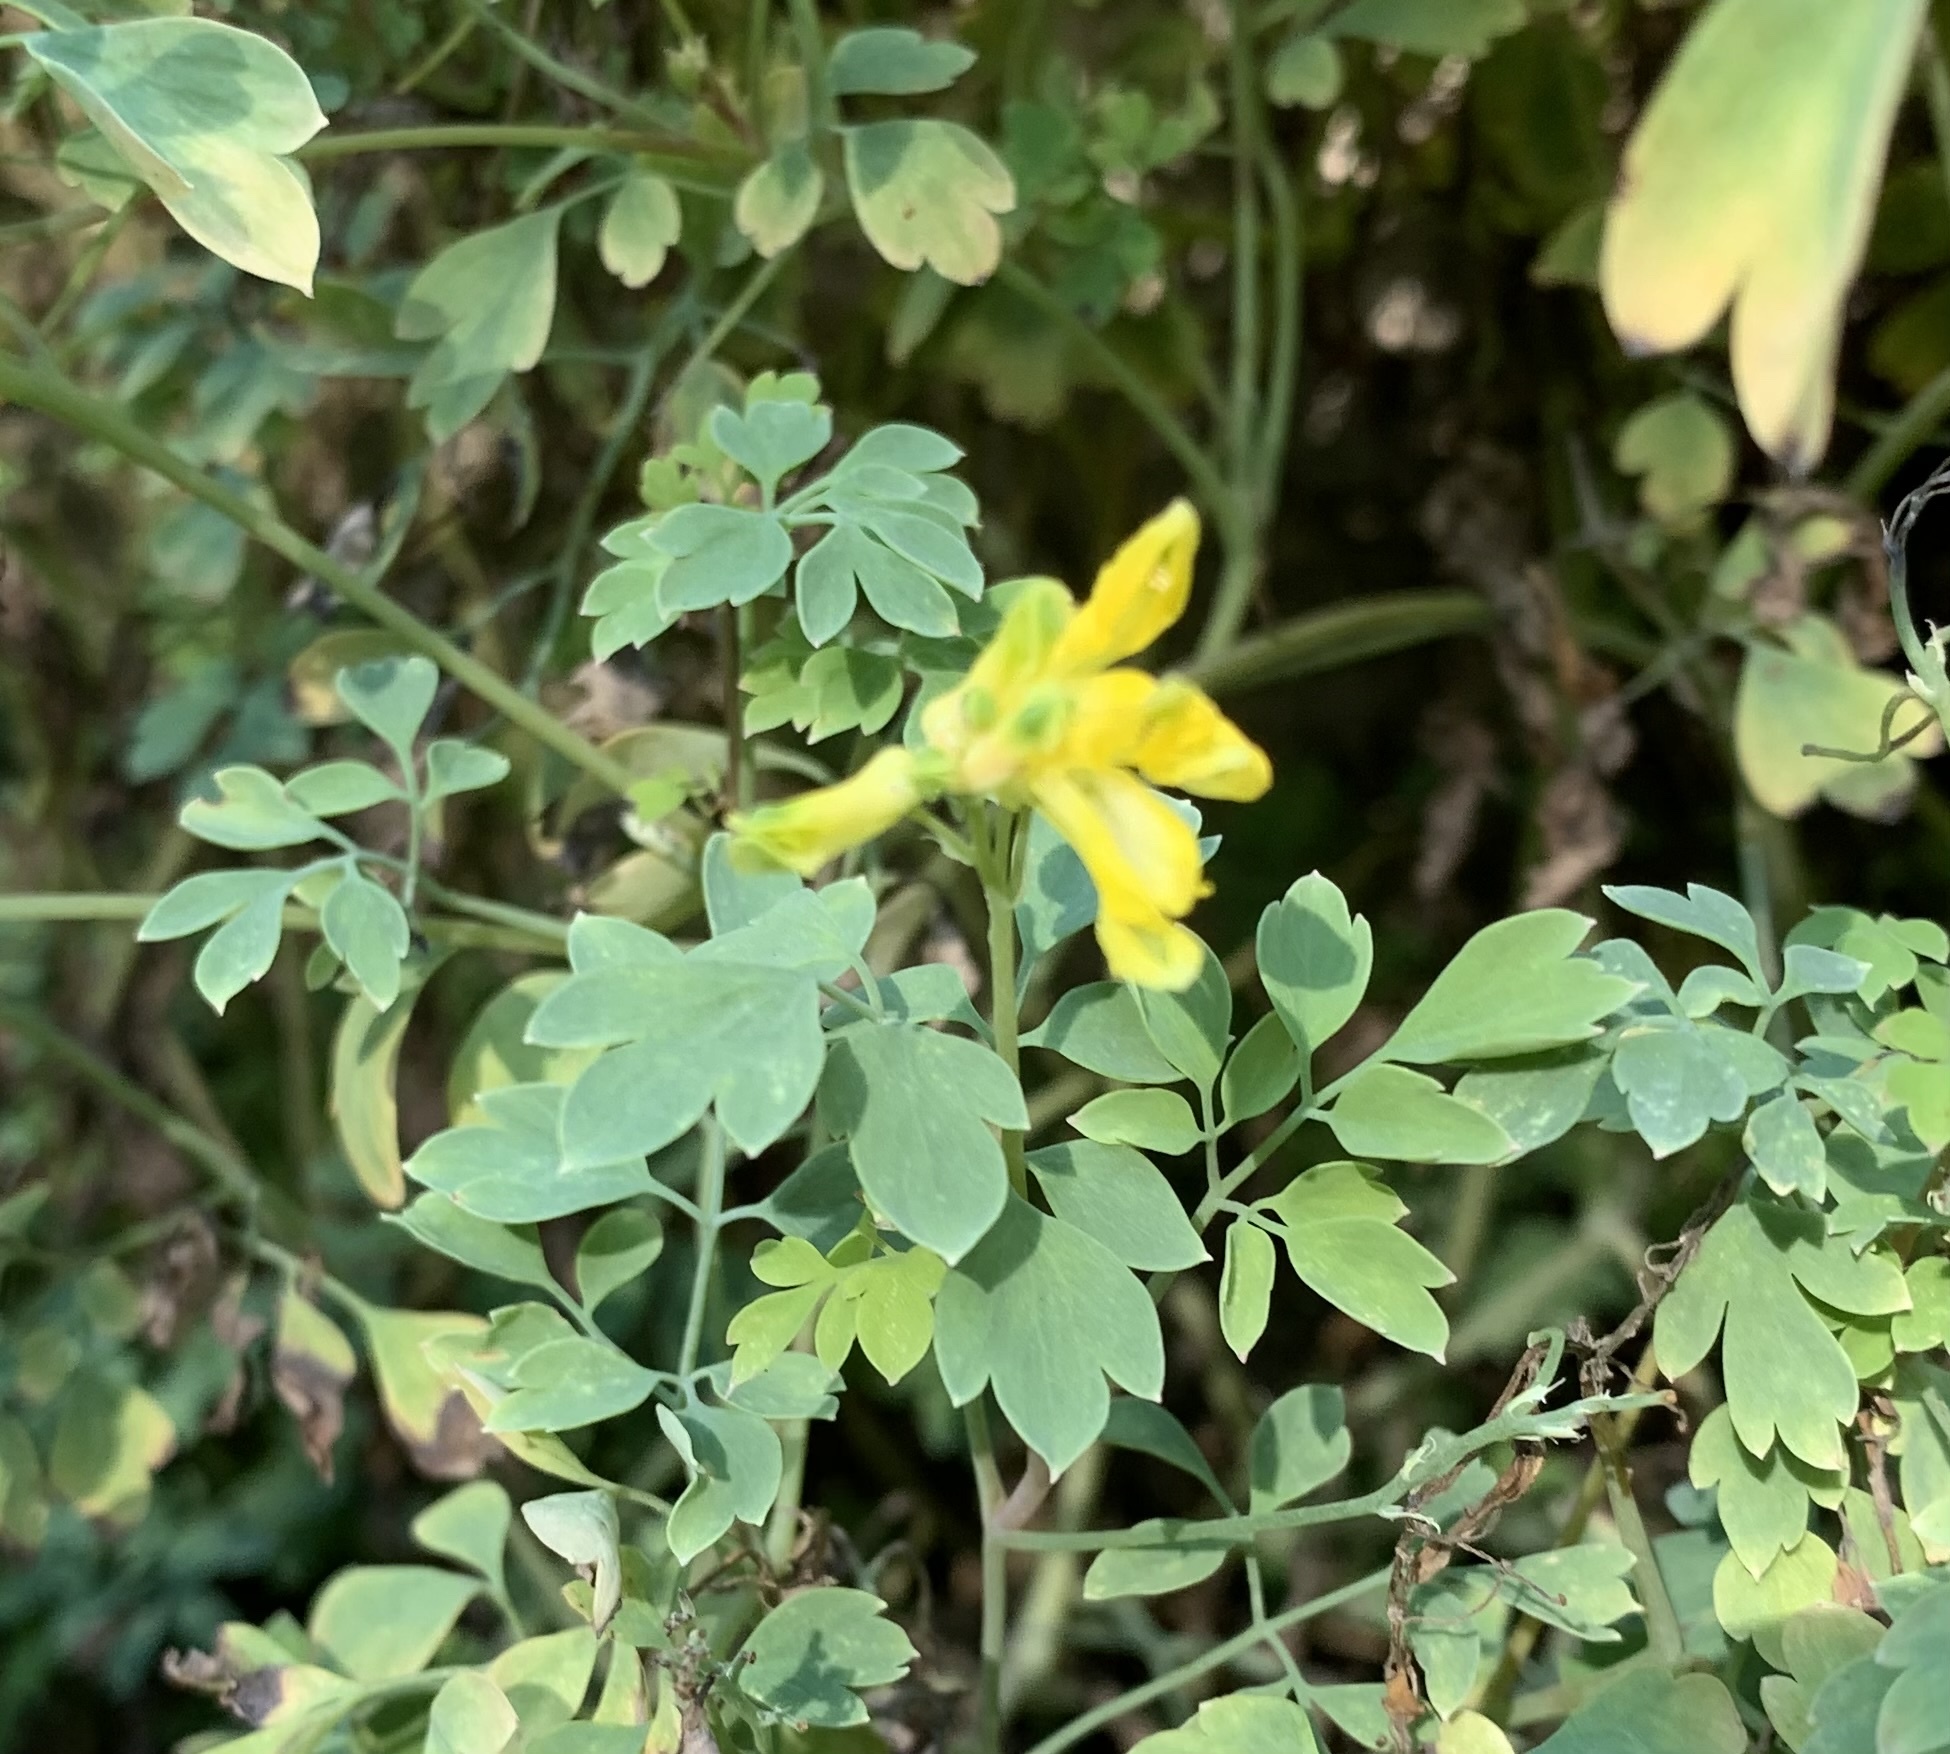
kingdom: Plantae
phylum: Tracheophyta
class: Magnoliopsida
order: Ranunculales
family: Papaveraceae
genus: Pseudofumaria
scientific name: Pseudofumaria lutea
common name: Yellow corydalis
